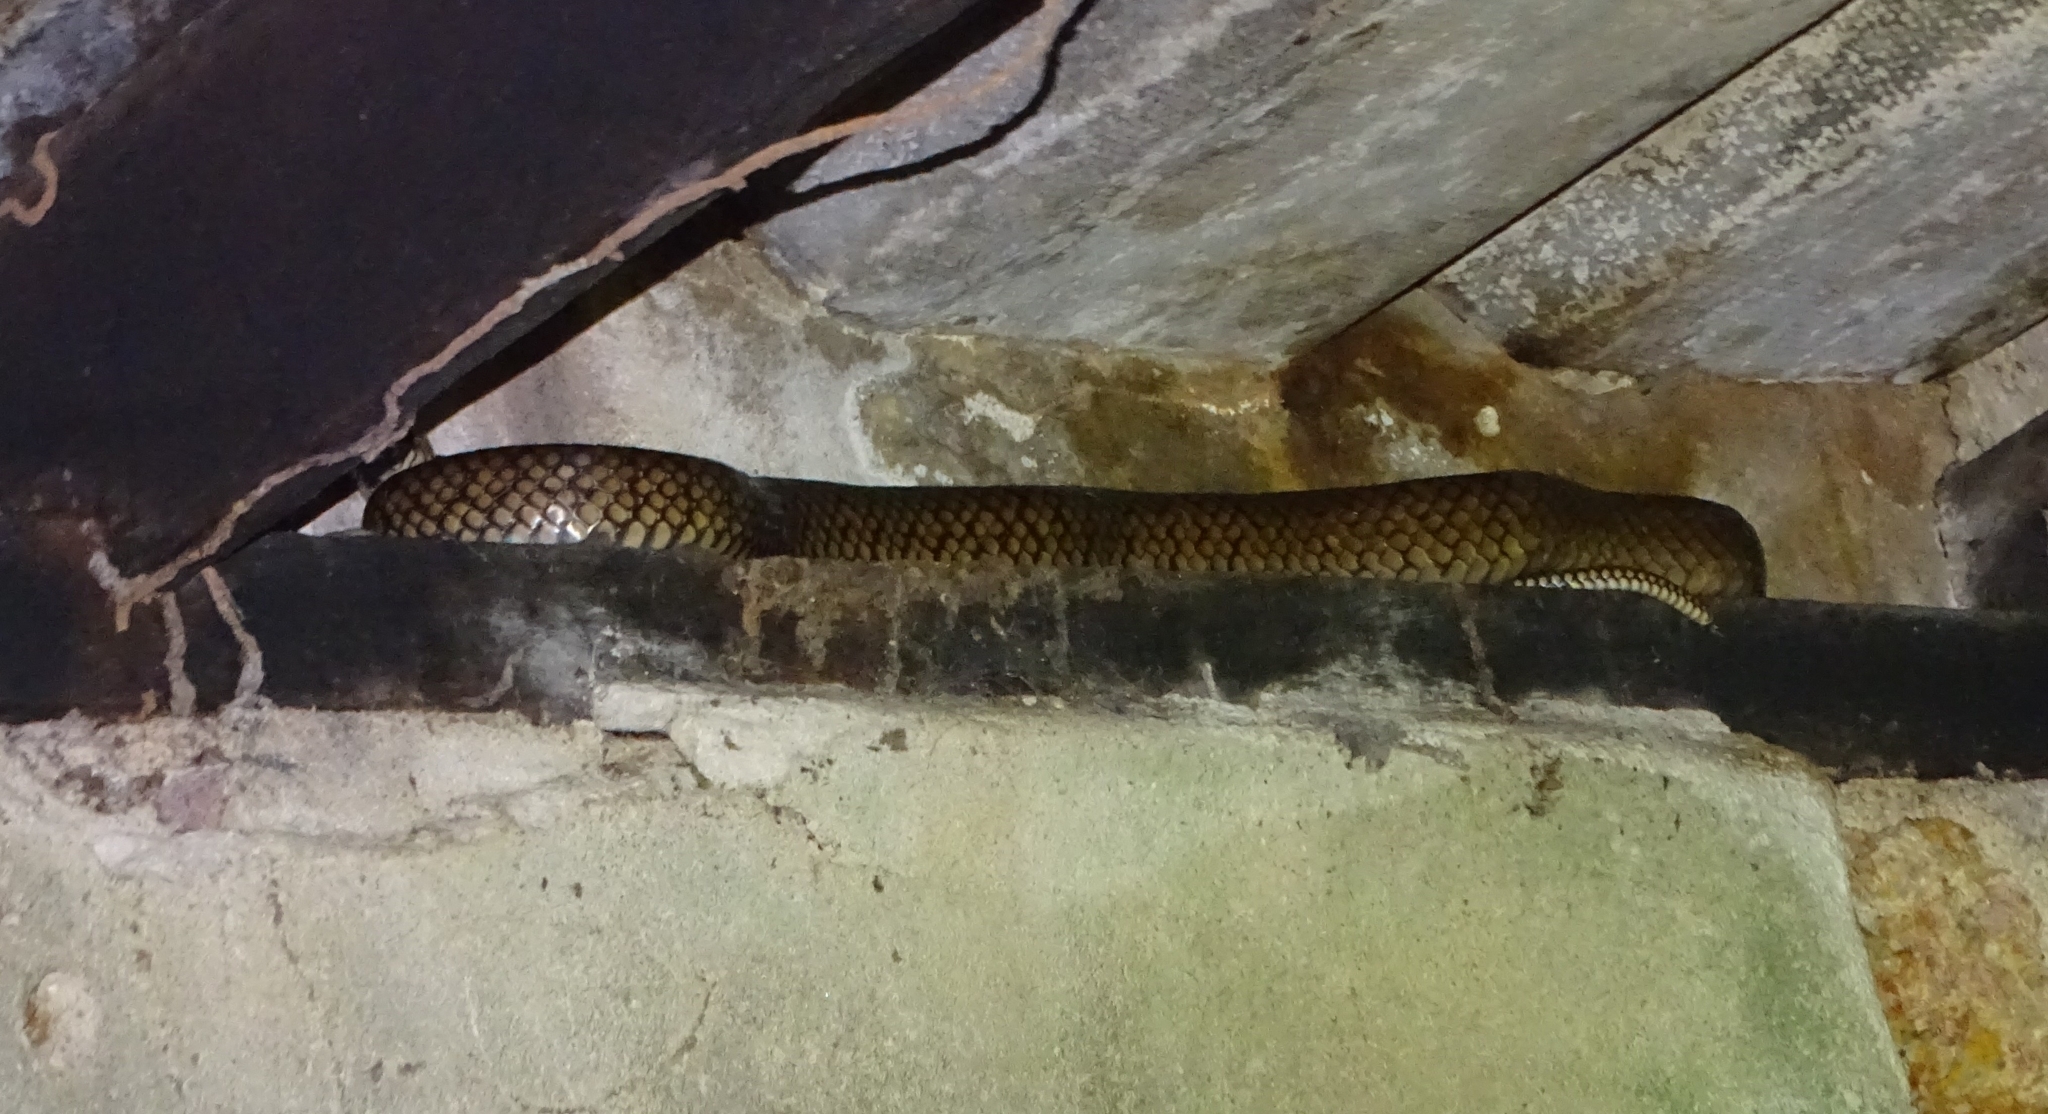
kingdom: Animalia
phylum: Chordata
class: Squamata
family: Colubridae
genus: Ptyas
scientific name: Ptyas mucosa
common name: Oriental ratsnake
